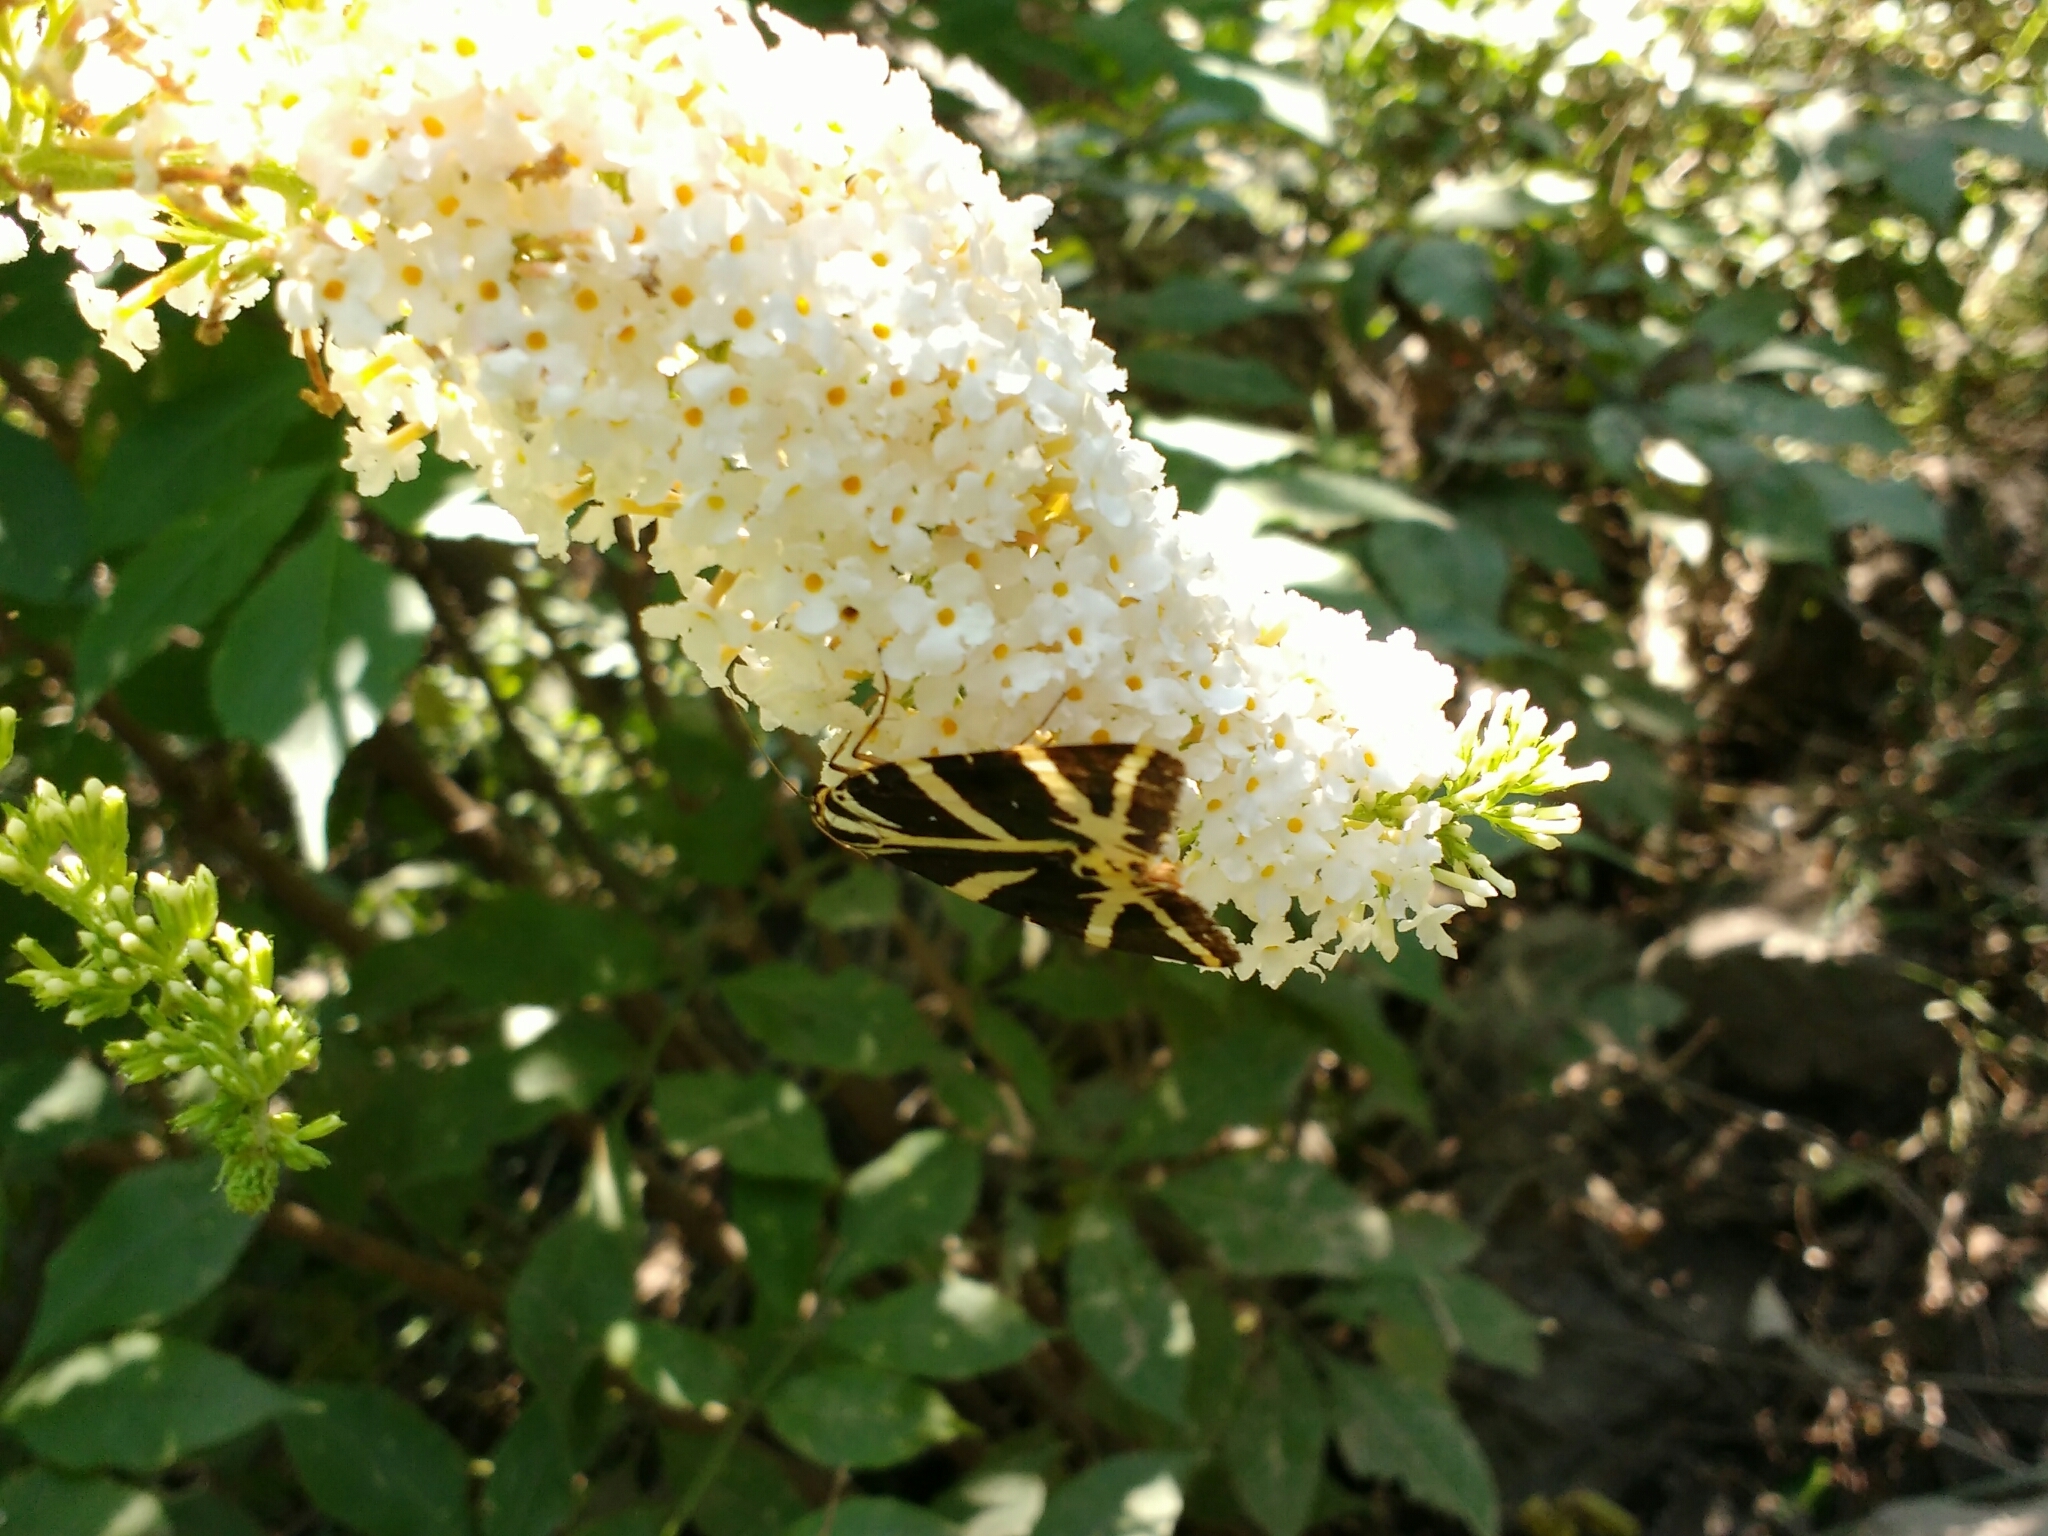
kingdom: Plantae
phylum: Tracheophyta
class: Magnoliopsida
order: Lamiales
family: Scrophulariaceae
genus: Buddleja
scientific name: Buddleja davidii
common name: Butterfly-bush
